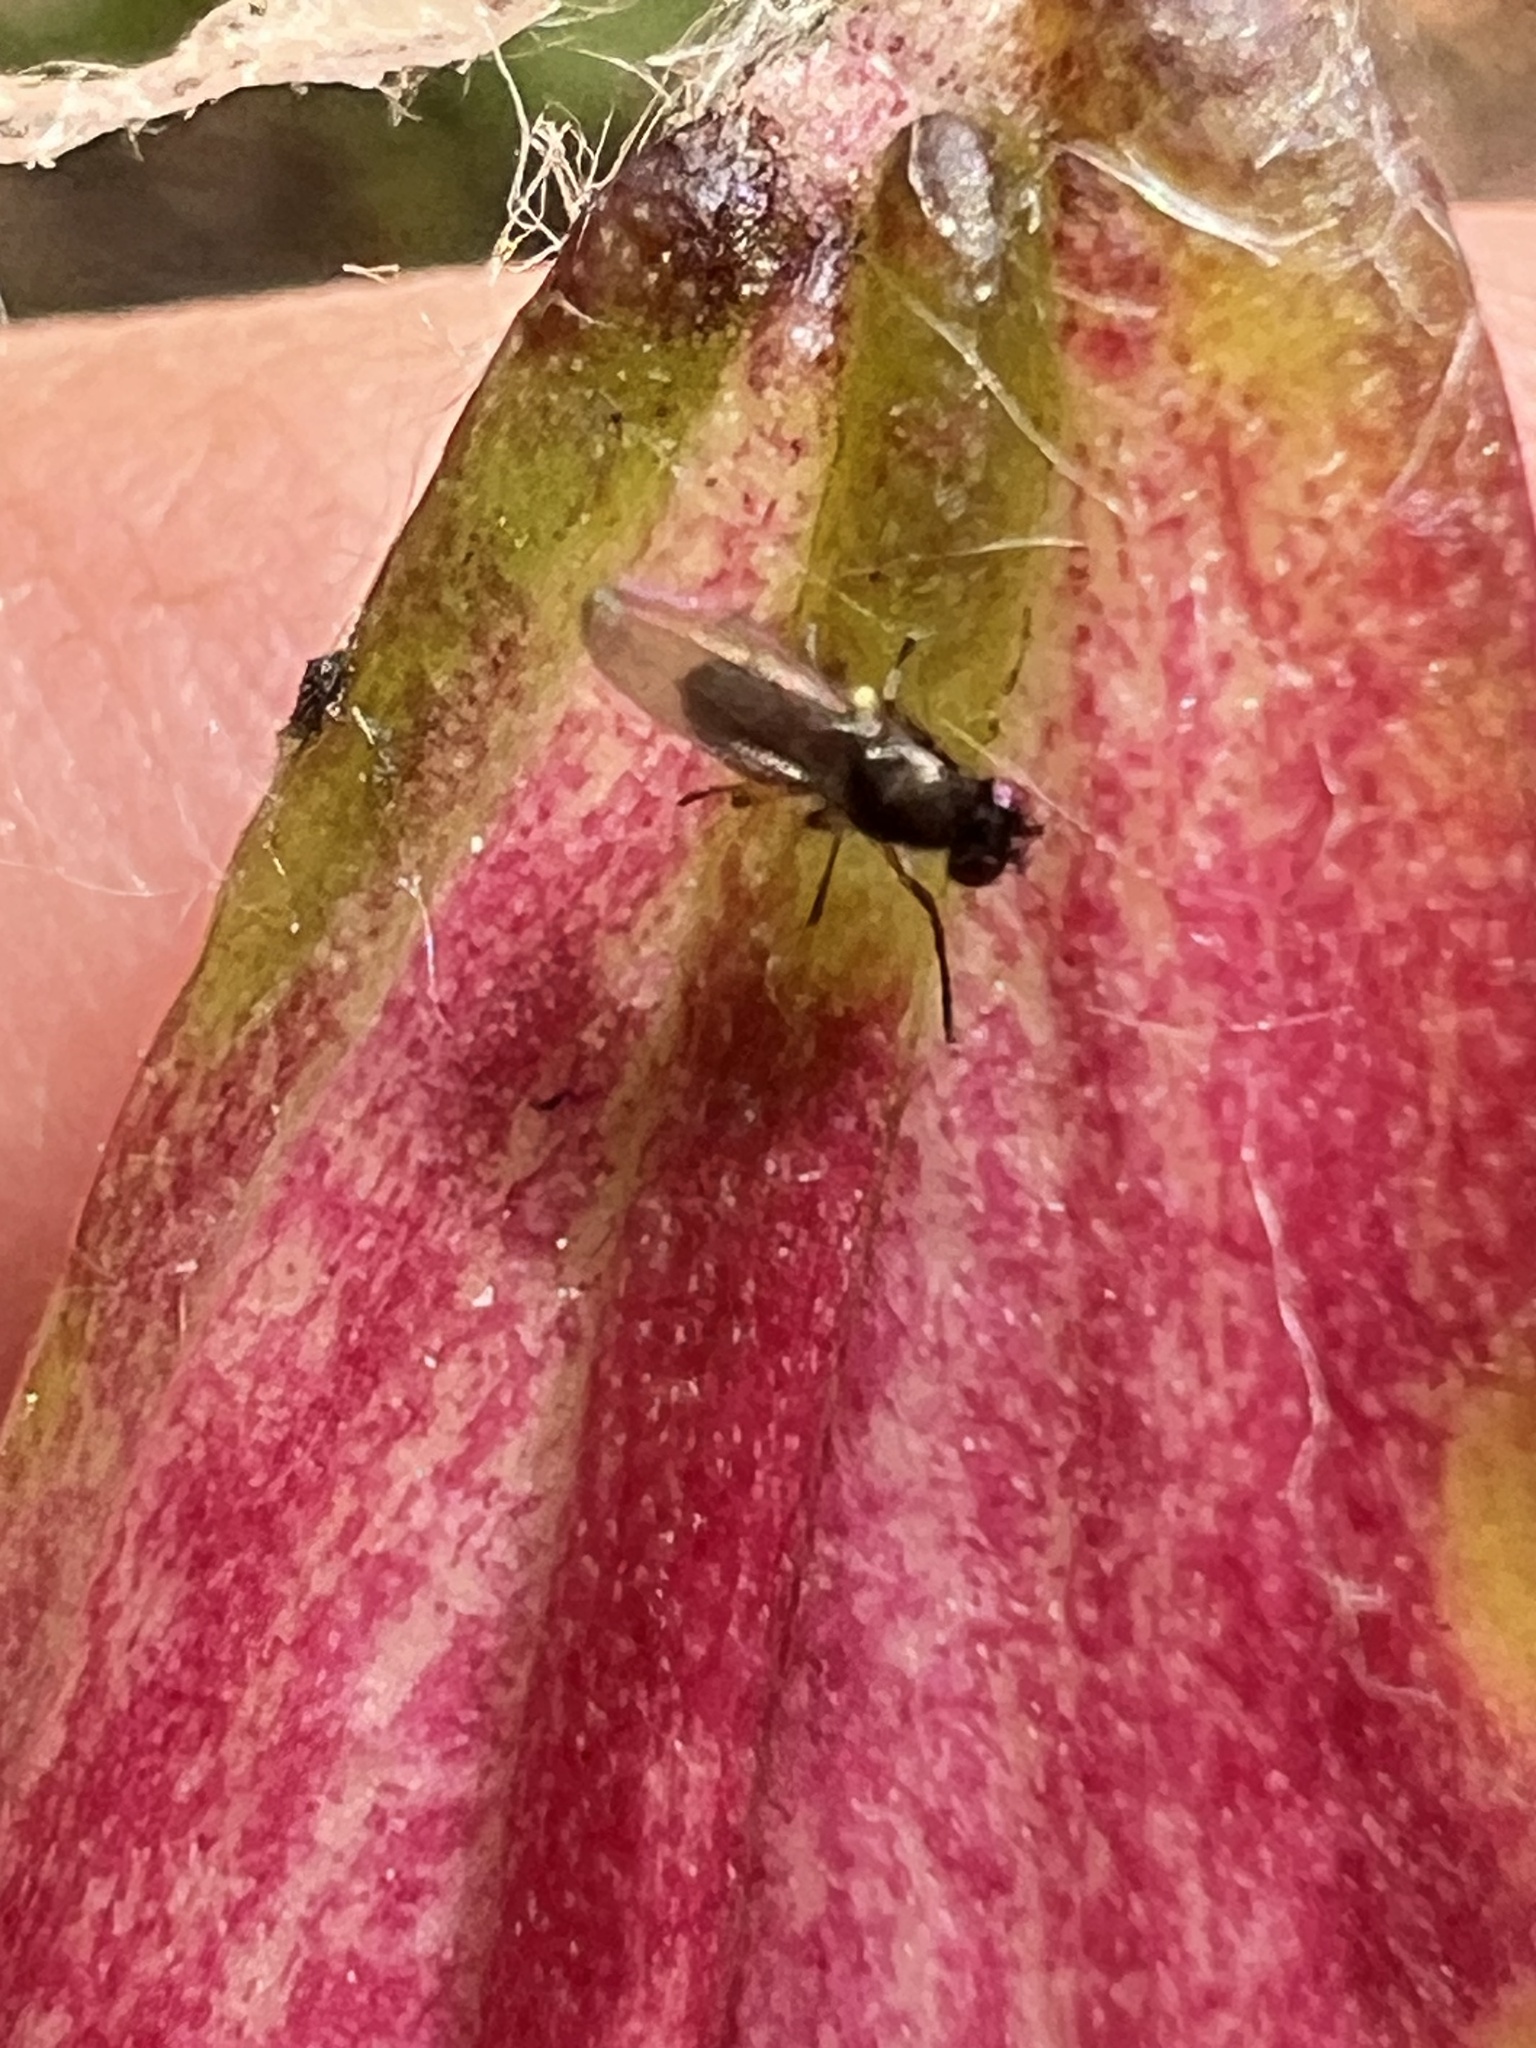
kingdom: Animalia
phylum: Arthropoda
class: Insecta
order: Diptera
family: Ephydridae
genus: Hydrellia
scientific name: Hydrellia tritici
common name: Shore fly
